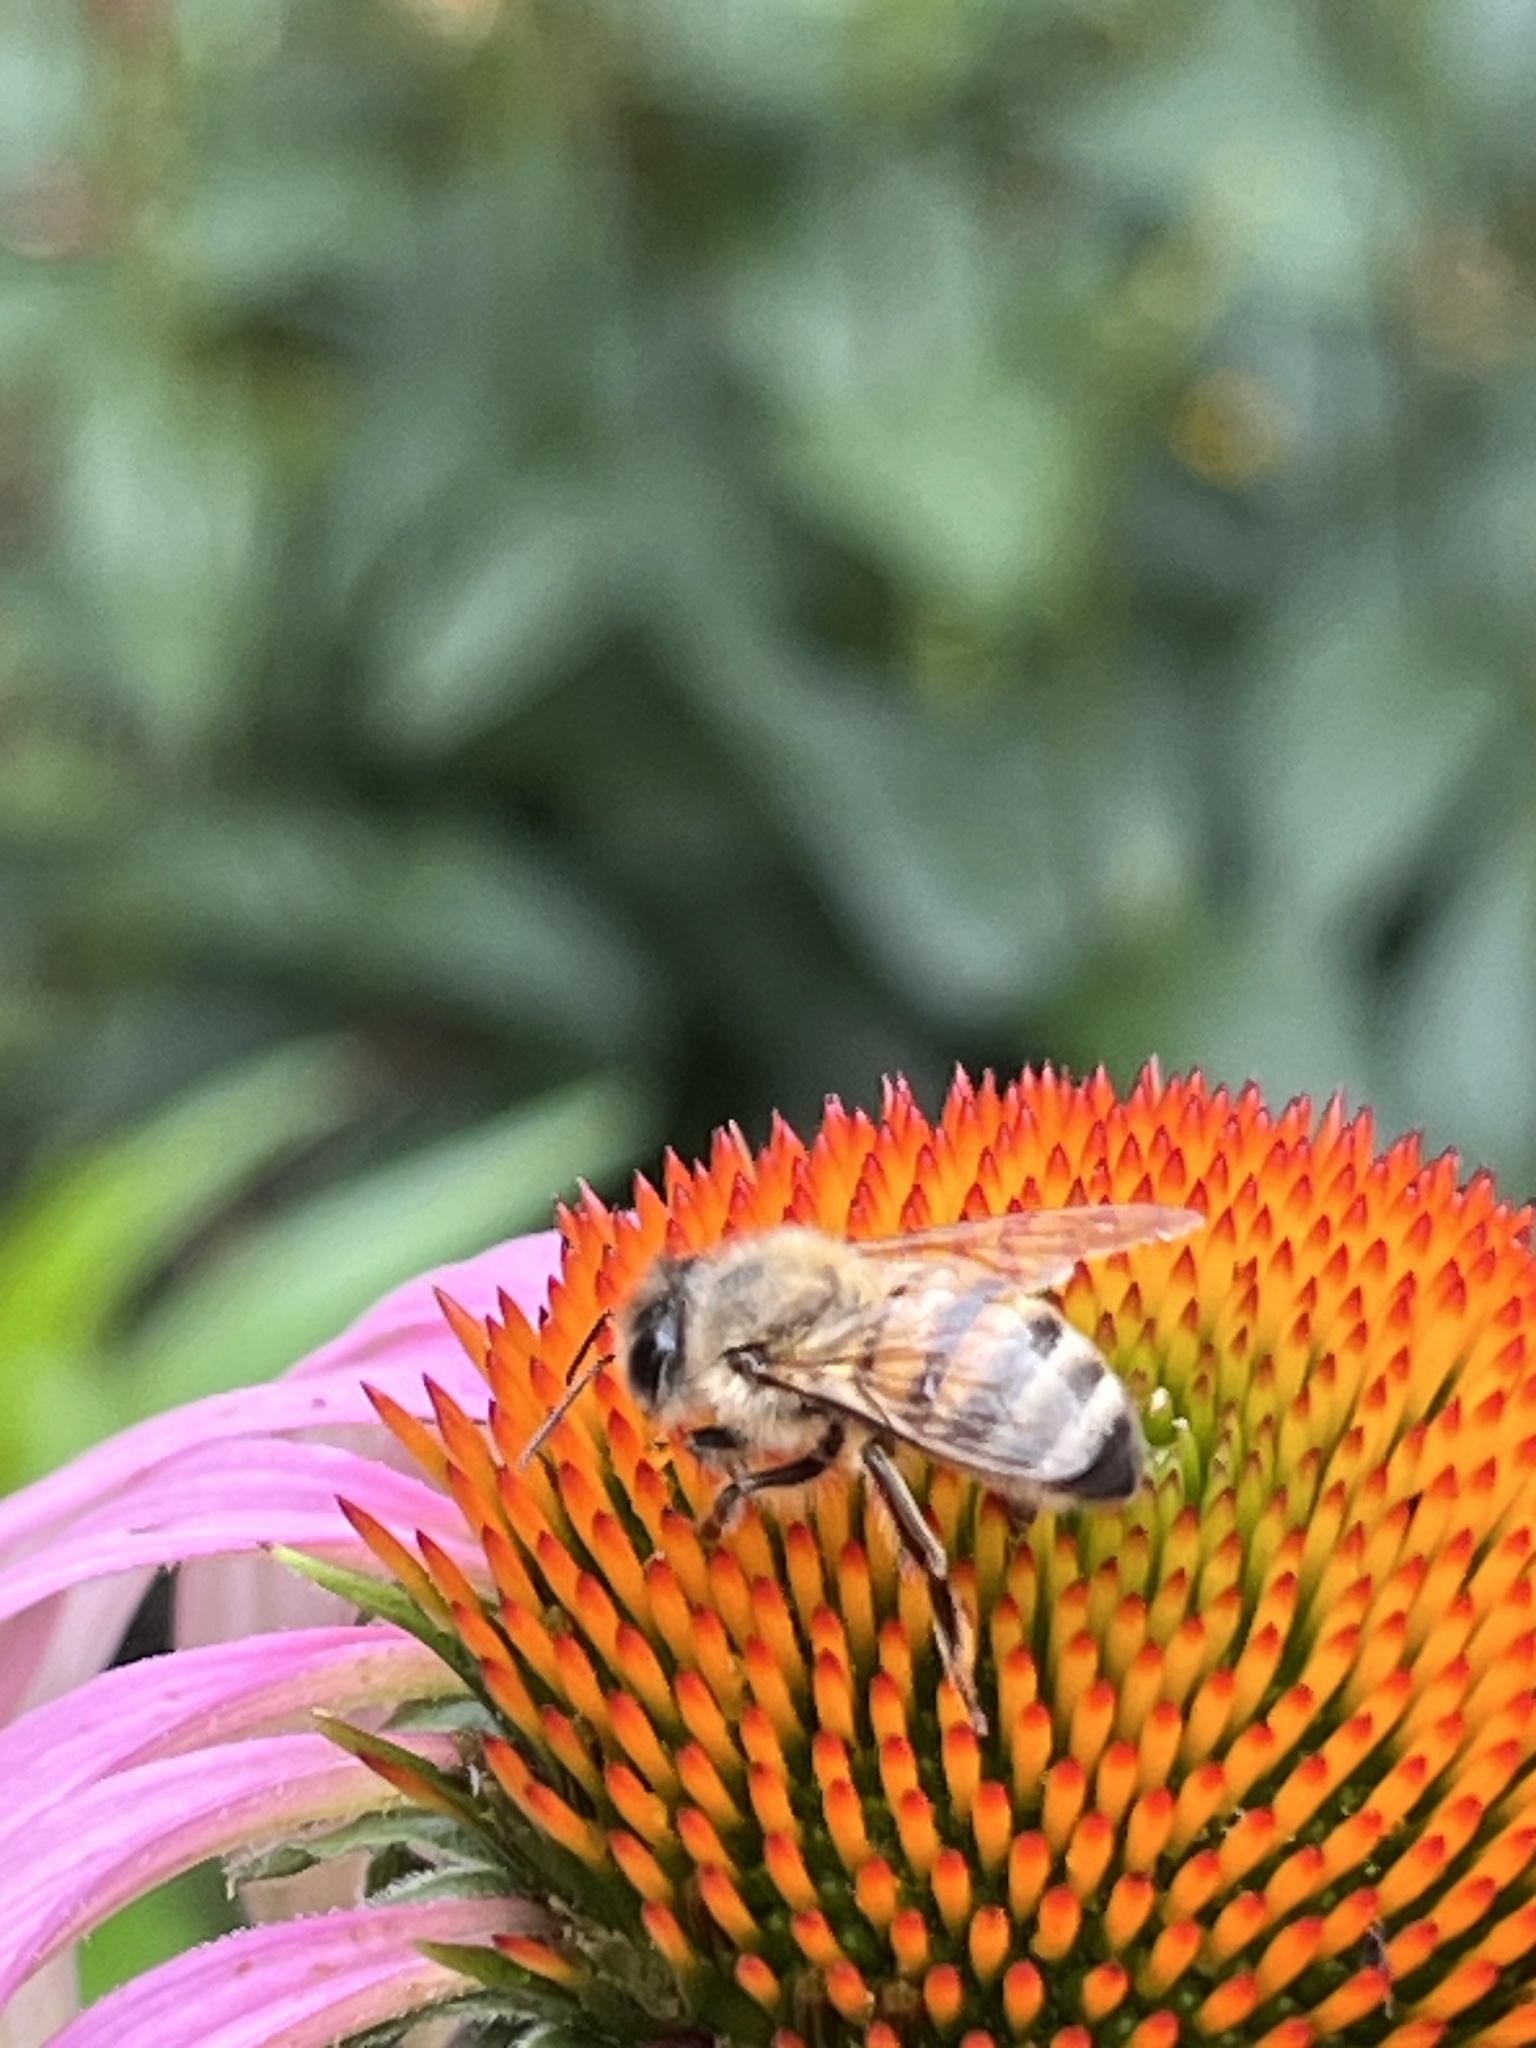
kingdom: Animalia
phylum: Arthropoda
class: Insecta
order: Hymenoptera
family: Apidae
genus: Apis
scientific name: Apis mellifera
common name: Honey bee
